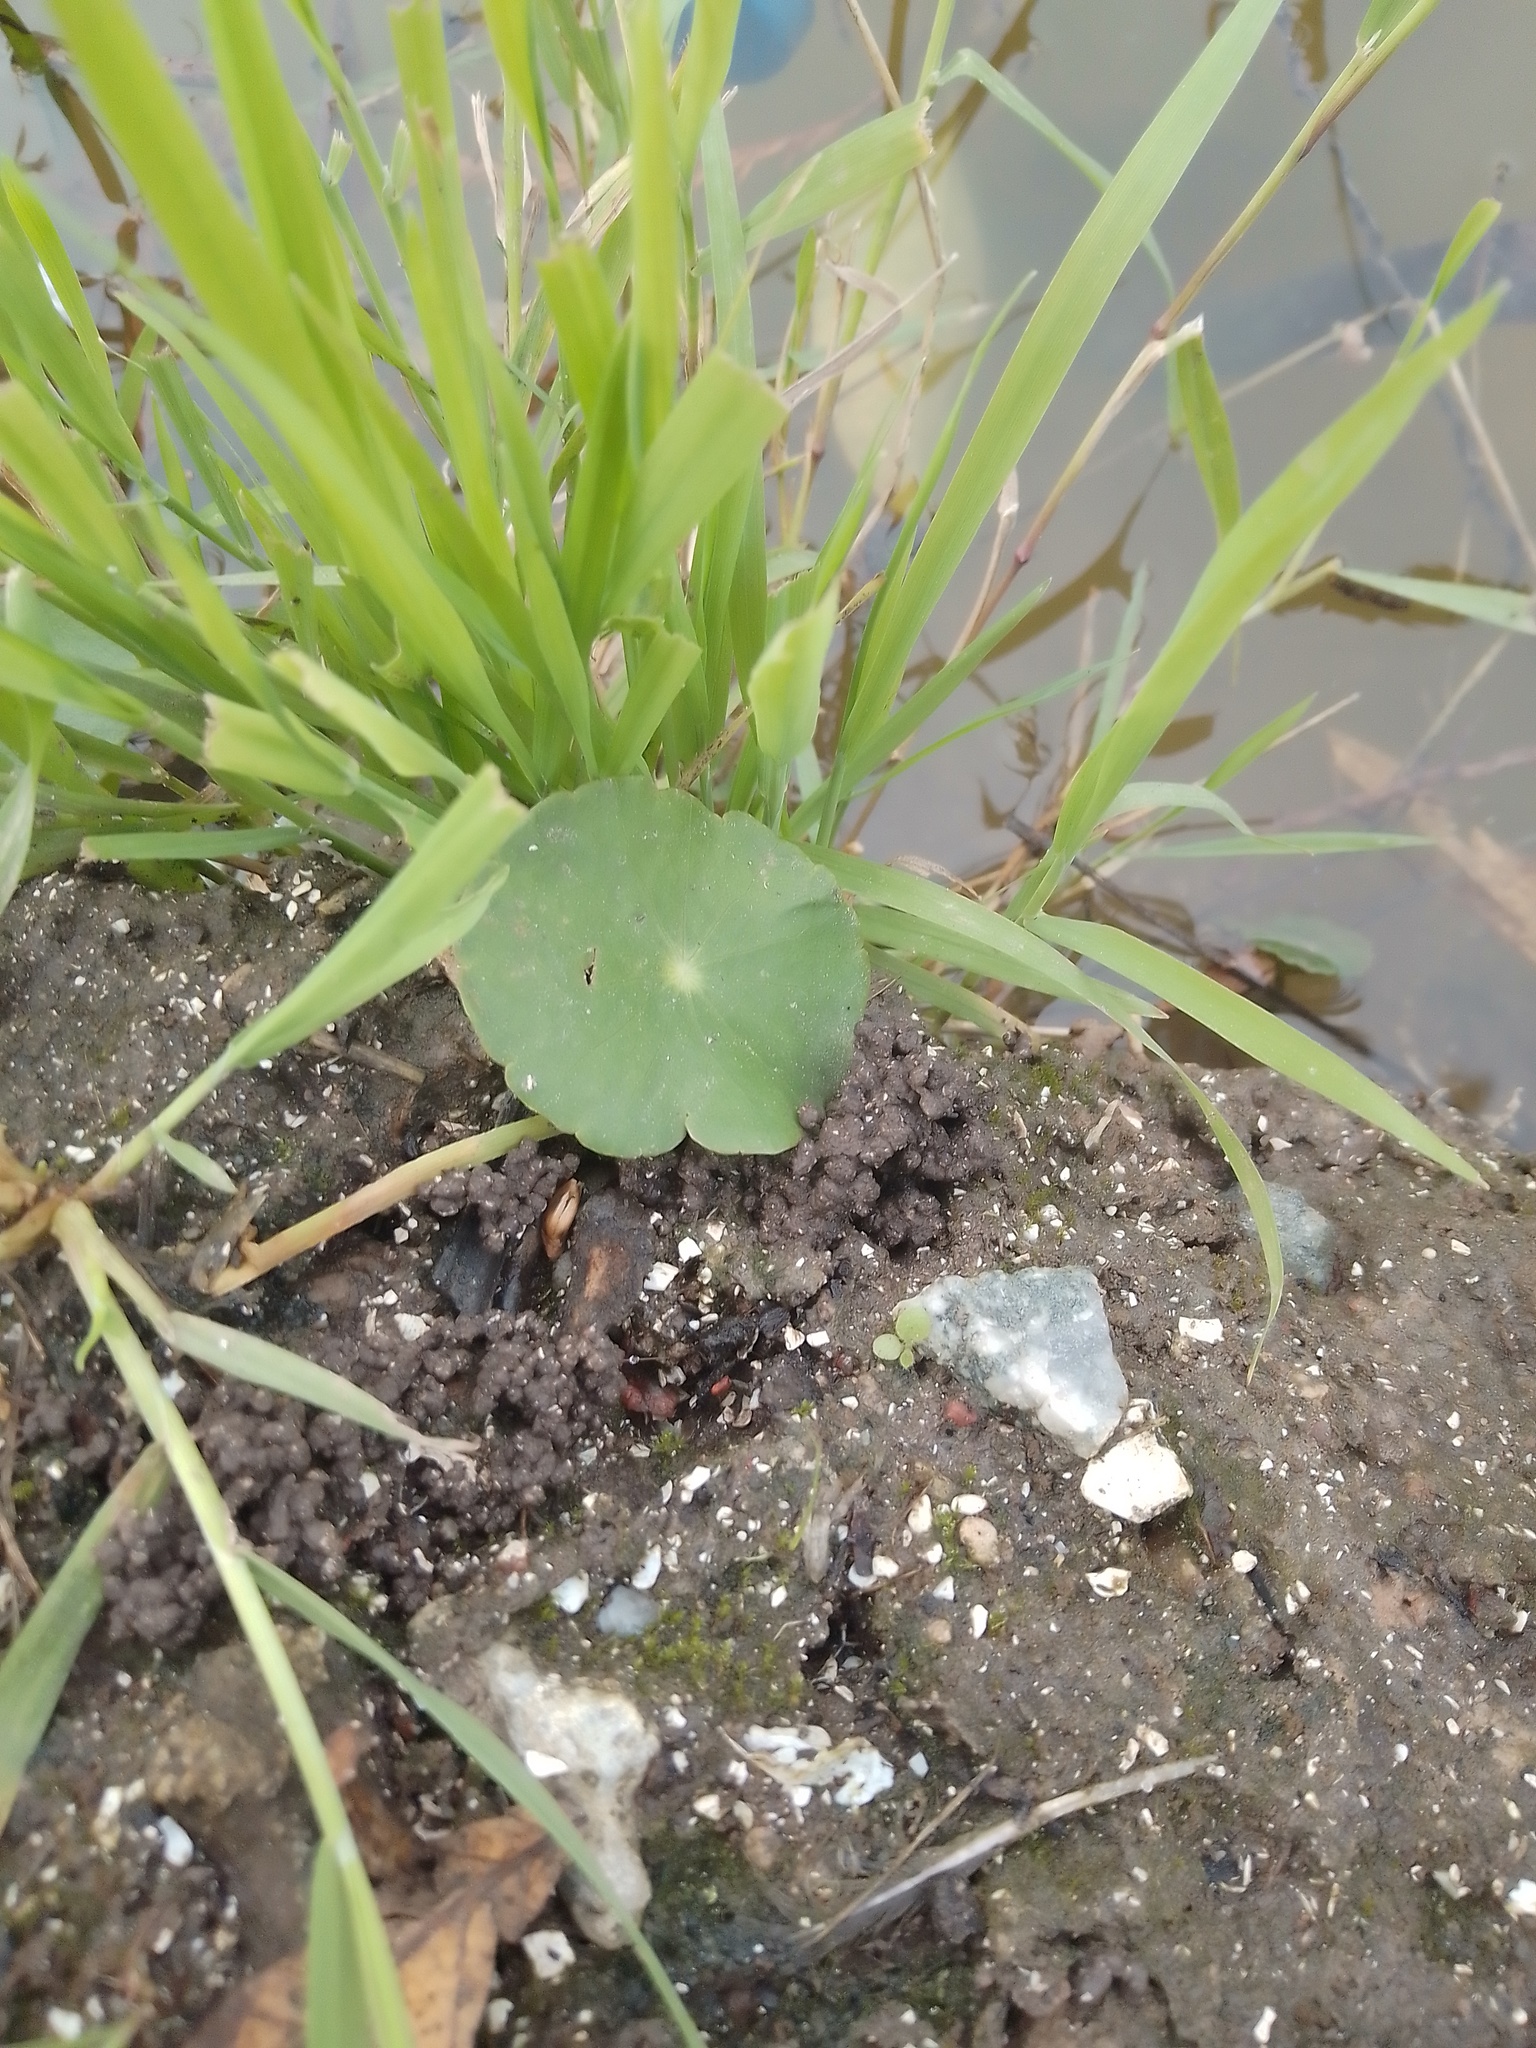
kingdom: Plantae
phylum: Tracheophyta
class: Magnoliopsida
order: Apiales
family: Araliaceae
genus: Hydrocotyle
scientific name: Hydrocotyle bonariensis
